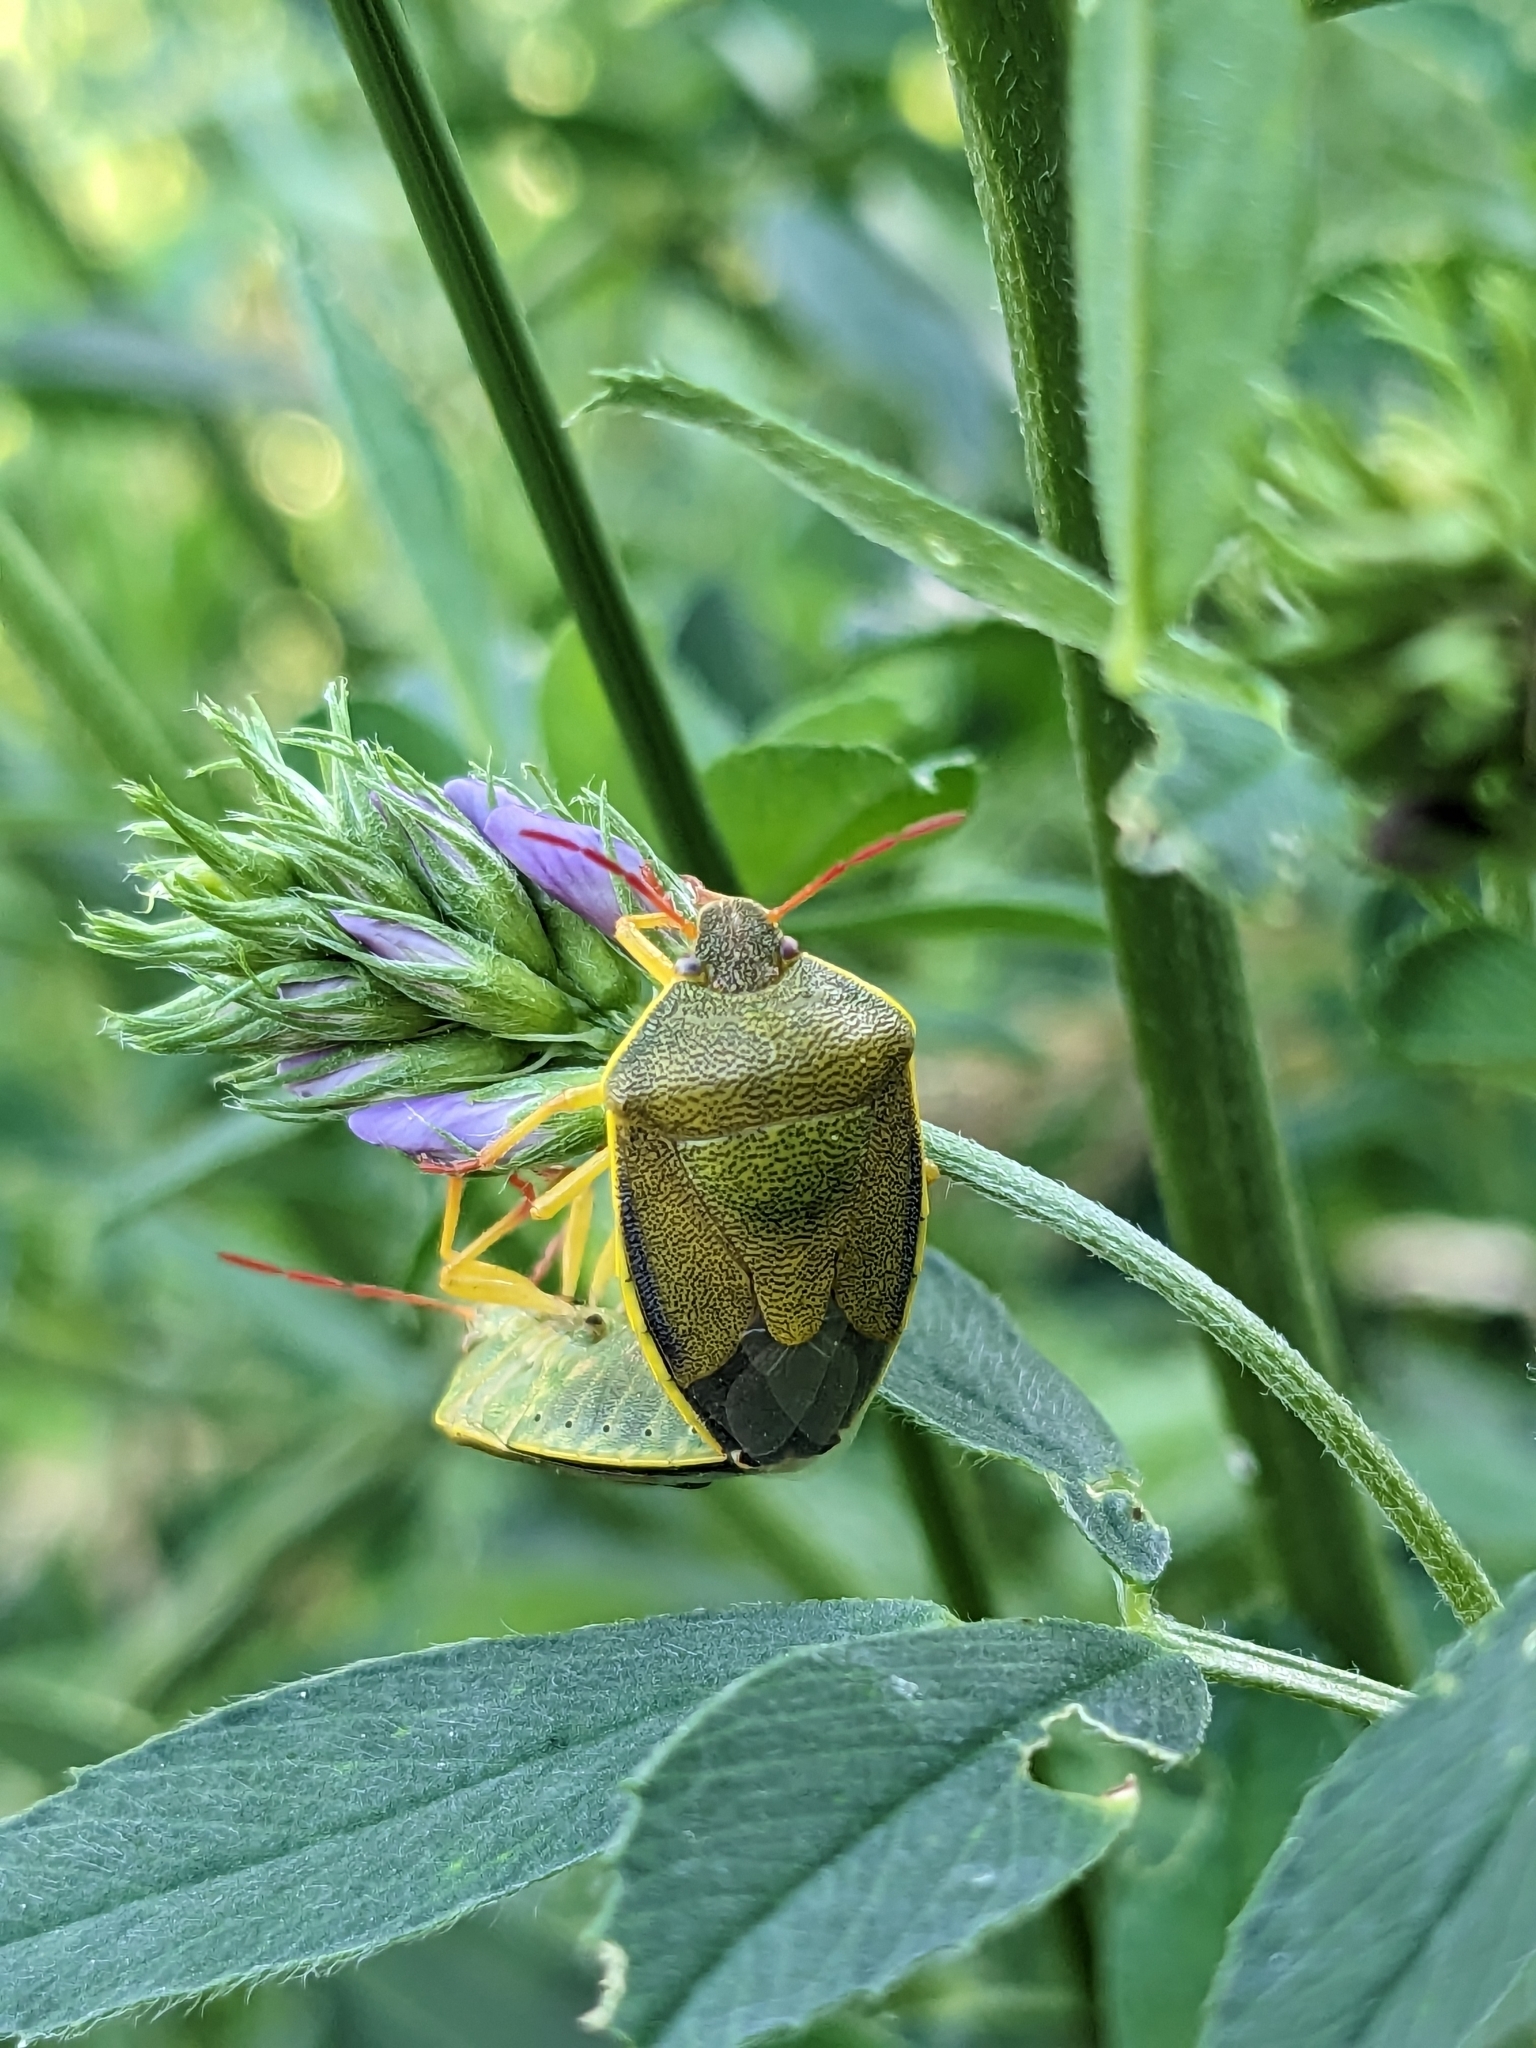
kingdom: Animalia
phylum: Arthropoda
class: Insecta
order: Hemiptera
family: Pentatomidae
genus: Piezodorus
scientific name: Piezodorus lituratus
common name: Stink bug
